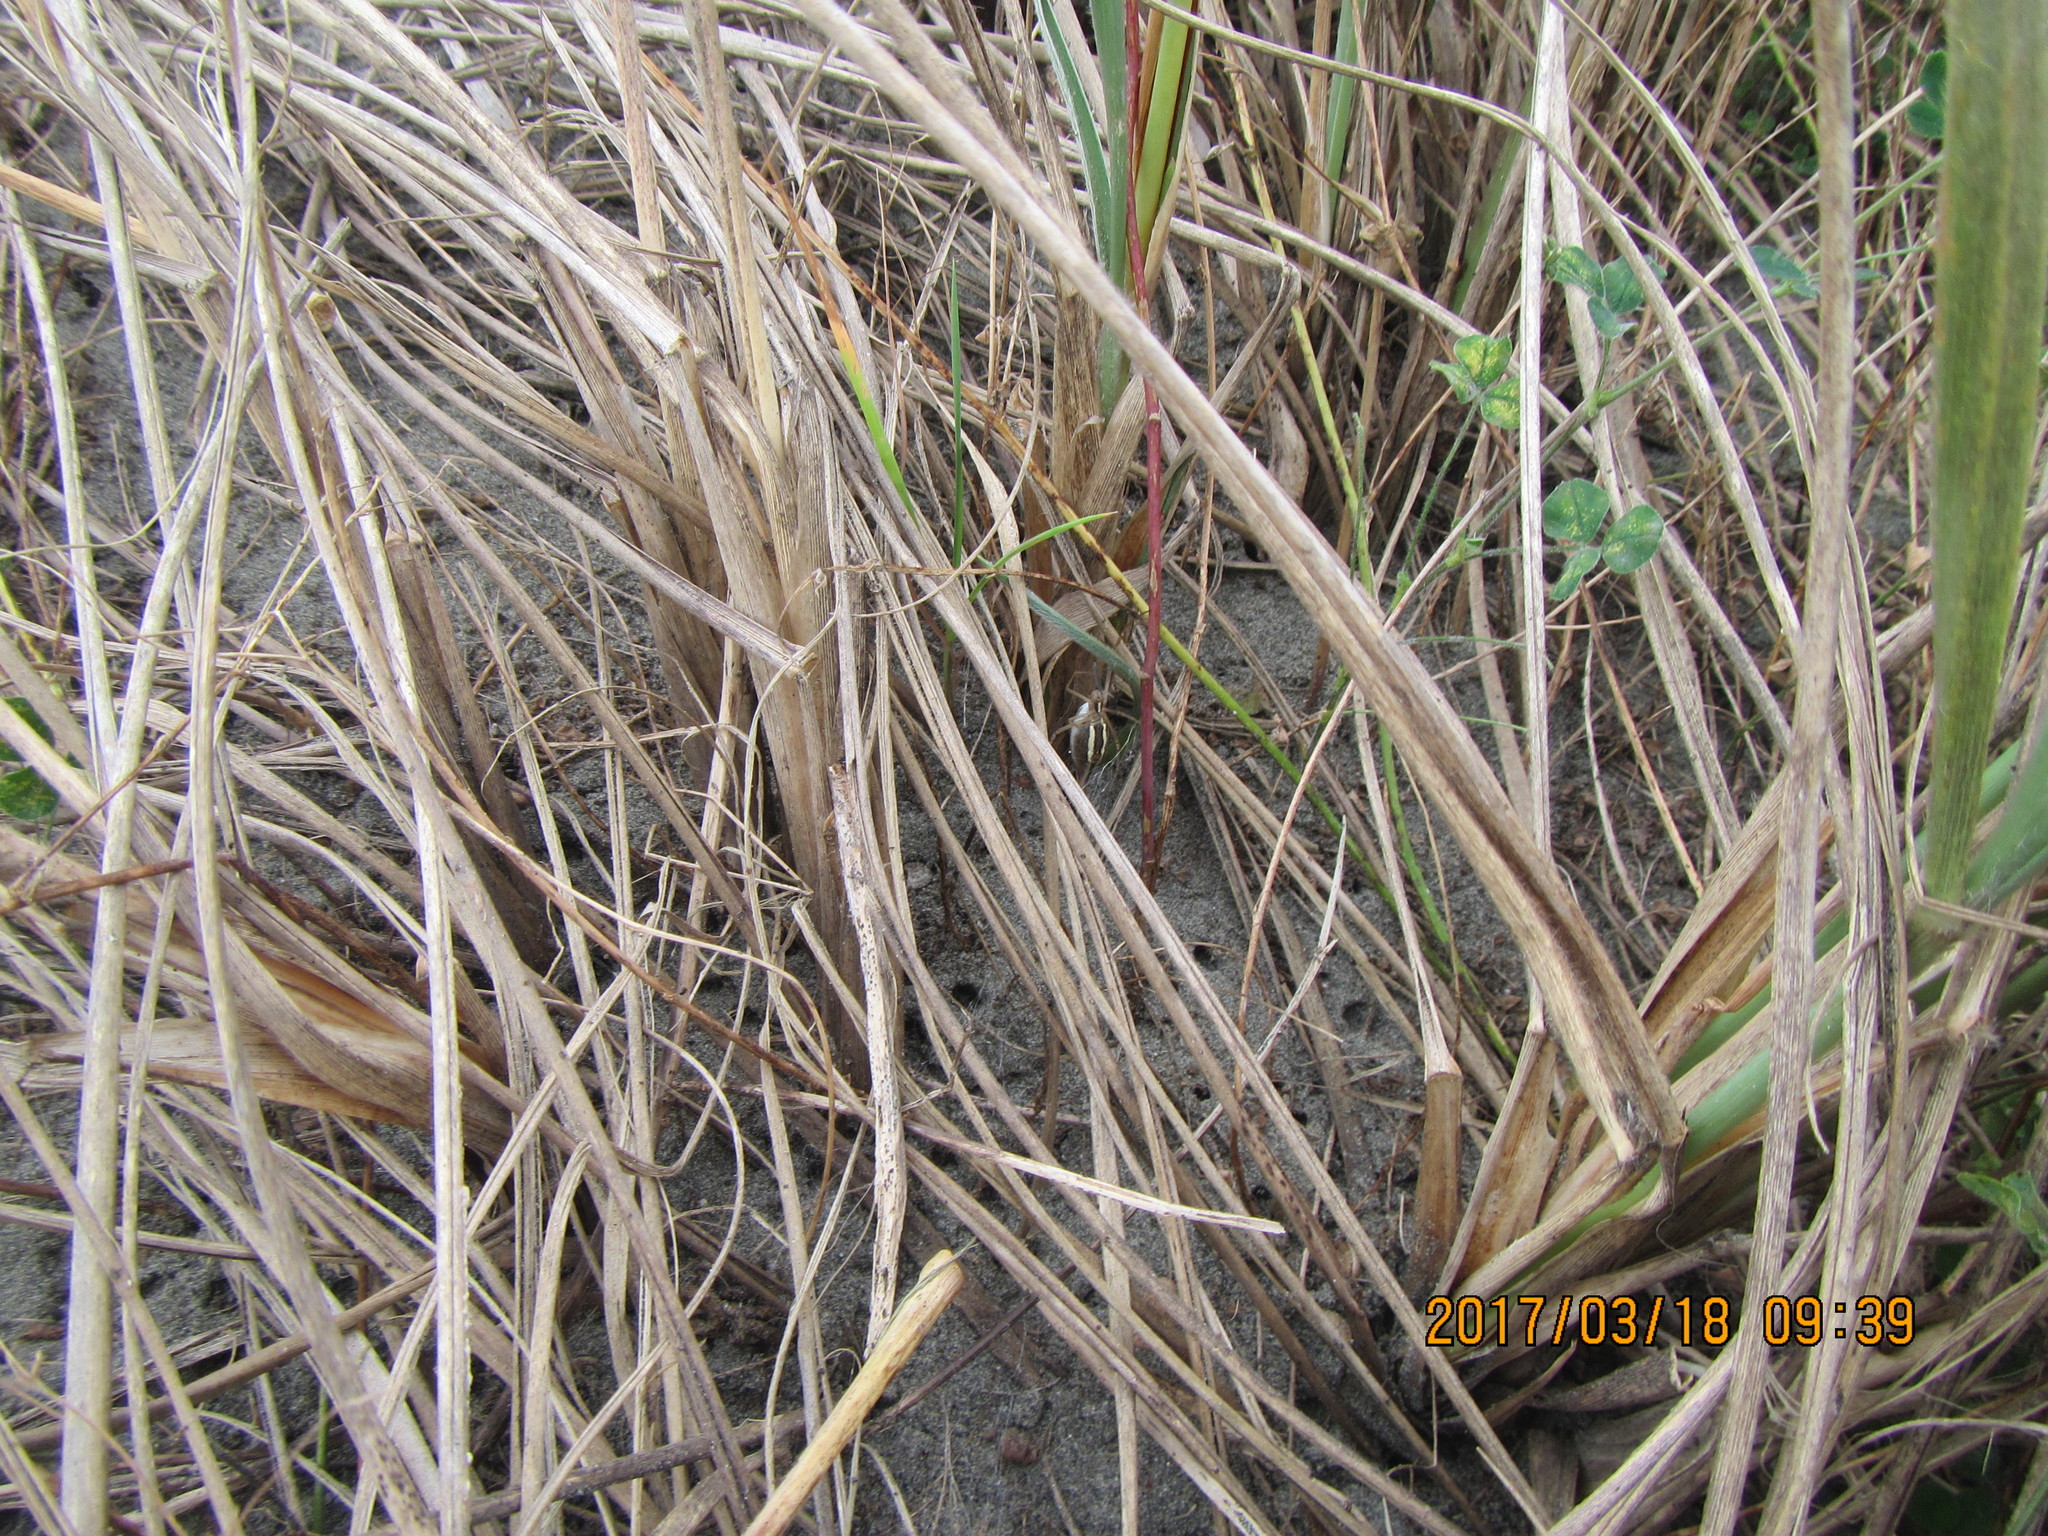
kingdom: Animalia
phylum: Arthropoda
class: Arachnida
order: Araneae
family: Araneidae
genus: Argiope
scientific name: Argiope protensa
